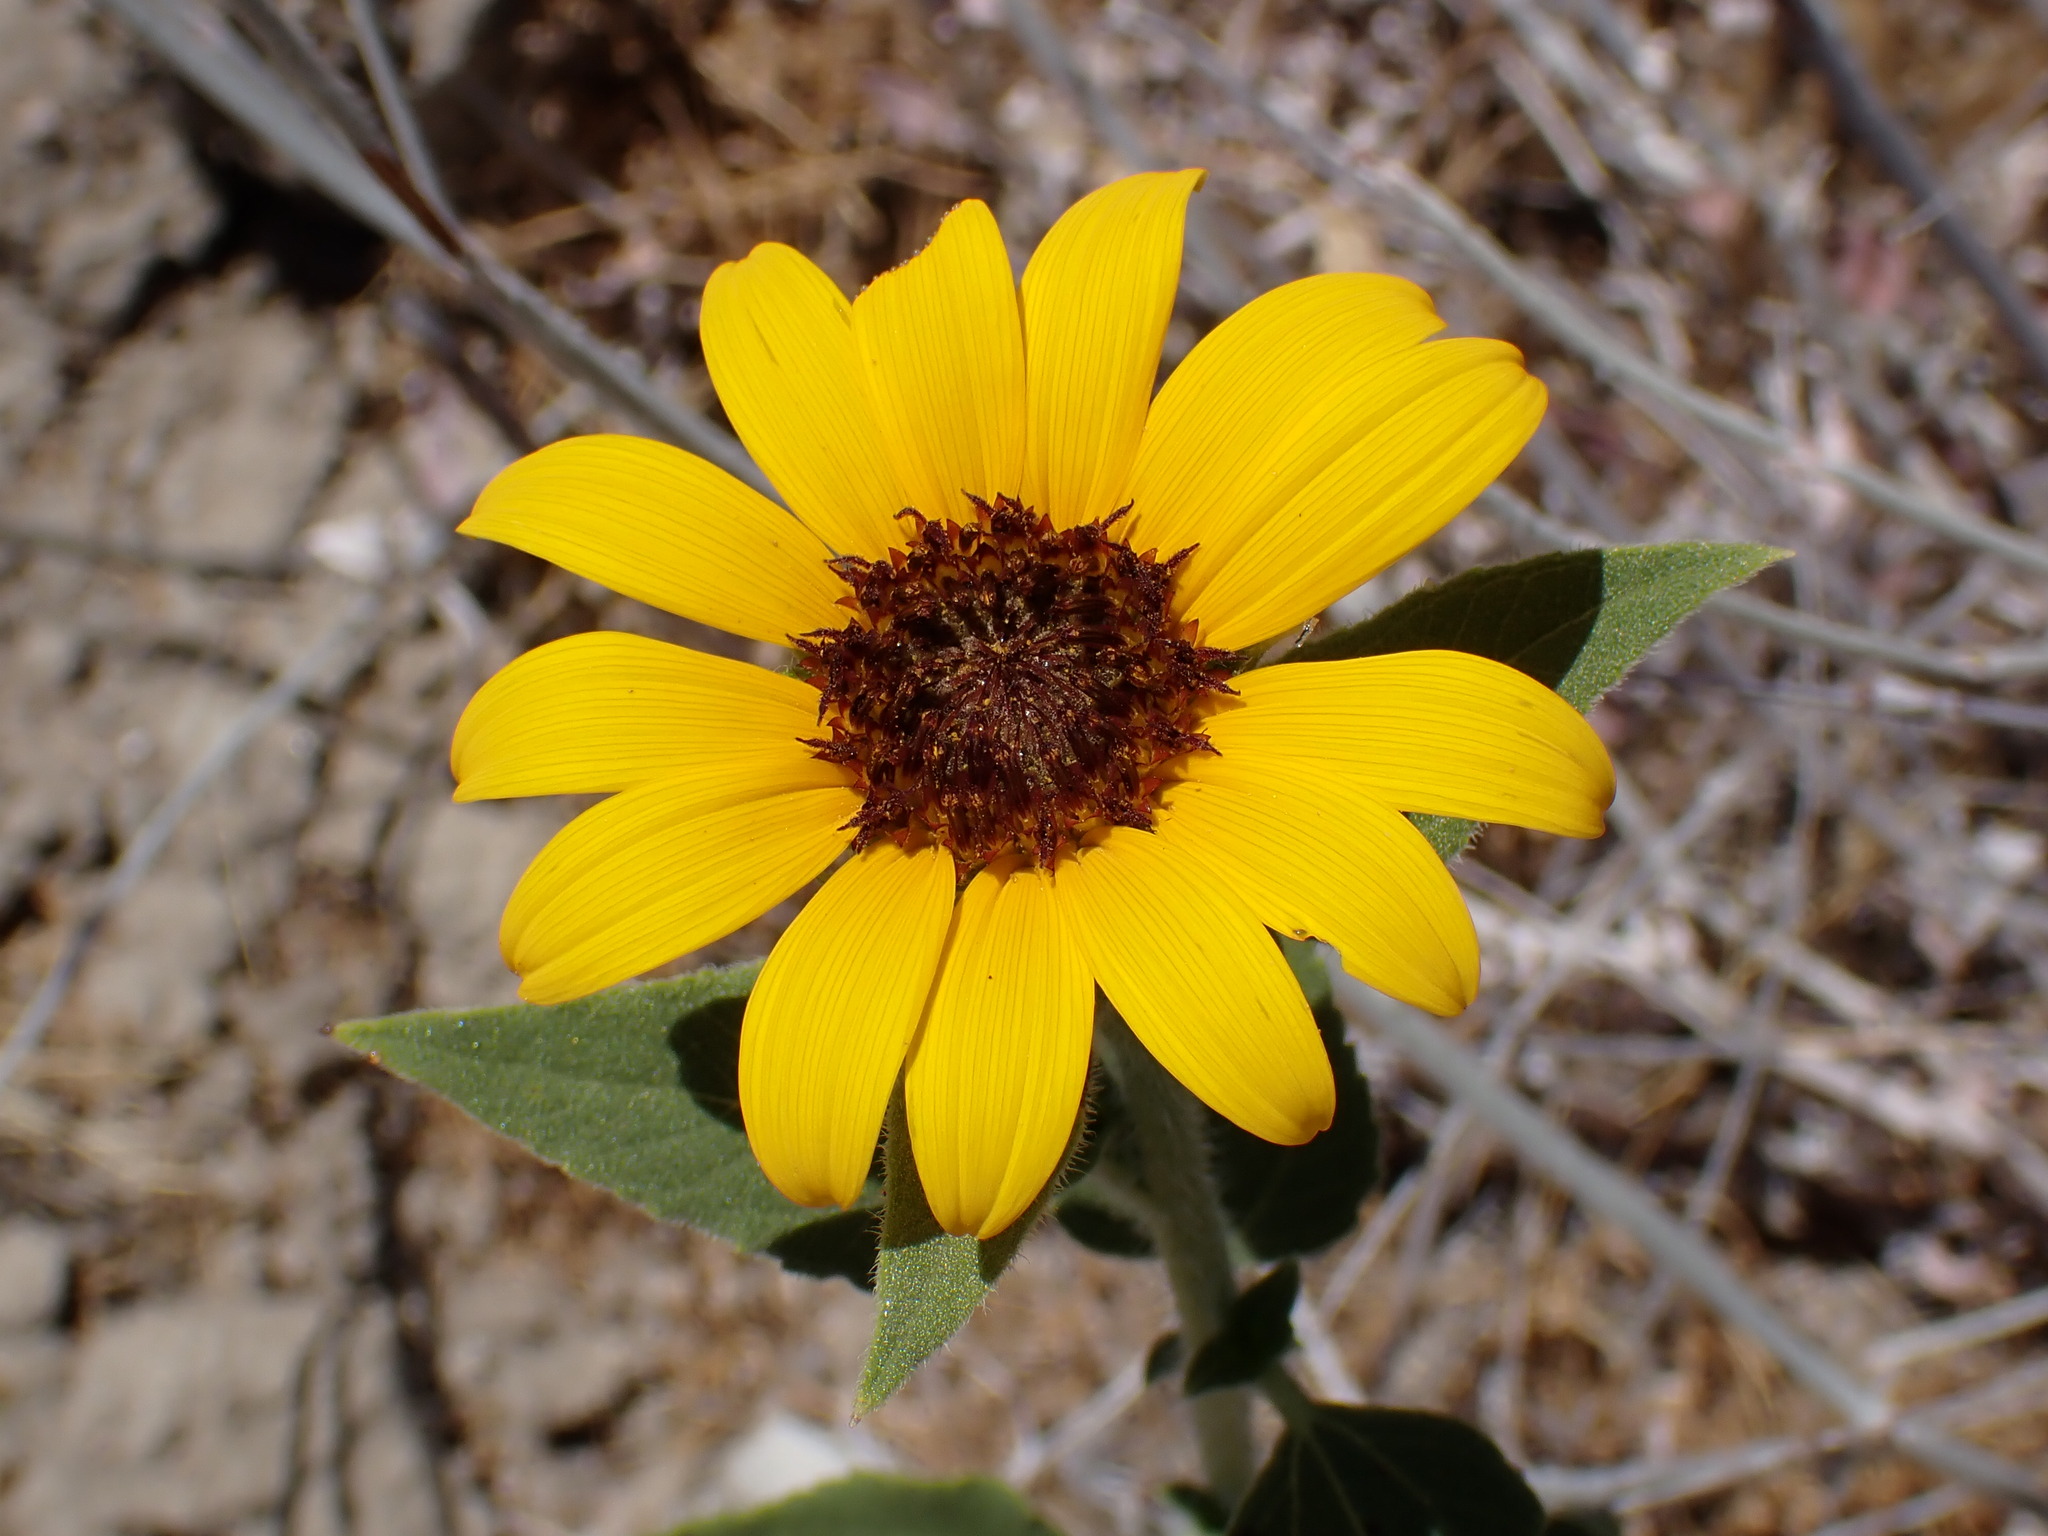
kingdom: Plantae
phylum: Tracheophyta
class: Magnoliopsida
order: Asterales
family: Asteraceae
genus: Helianthus
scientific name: Helianthus annuus
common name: Sunflower
